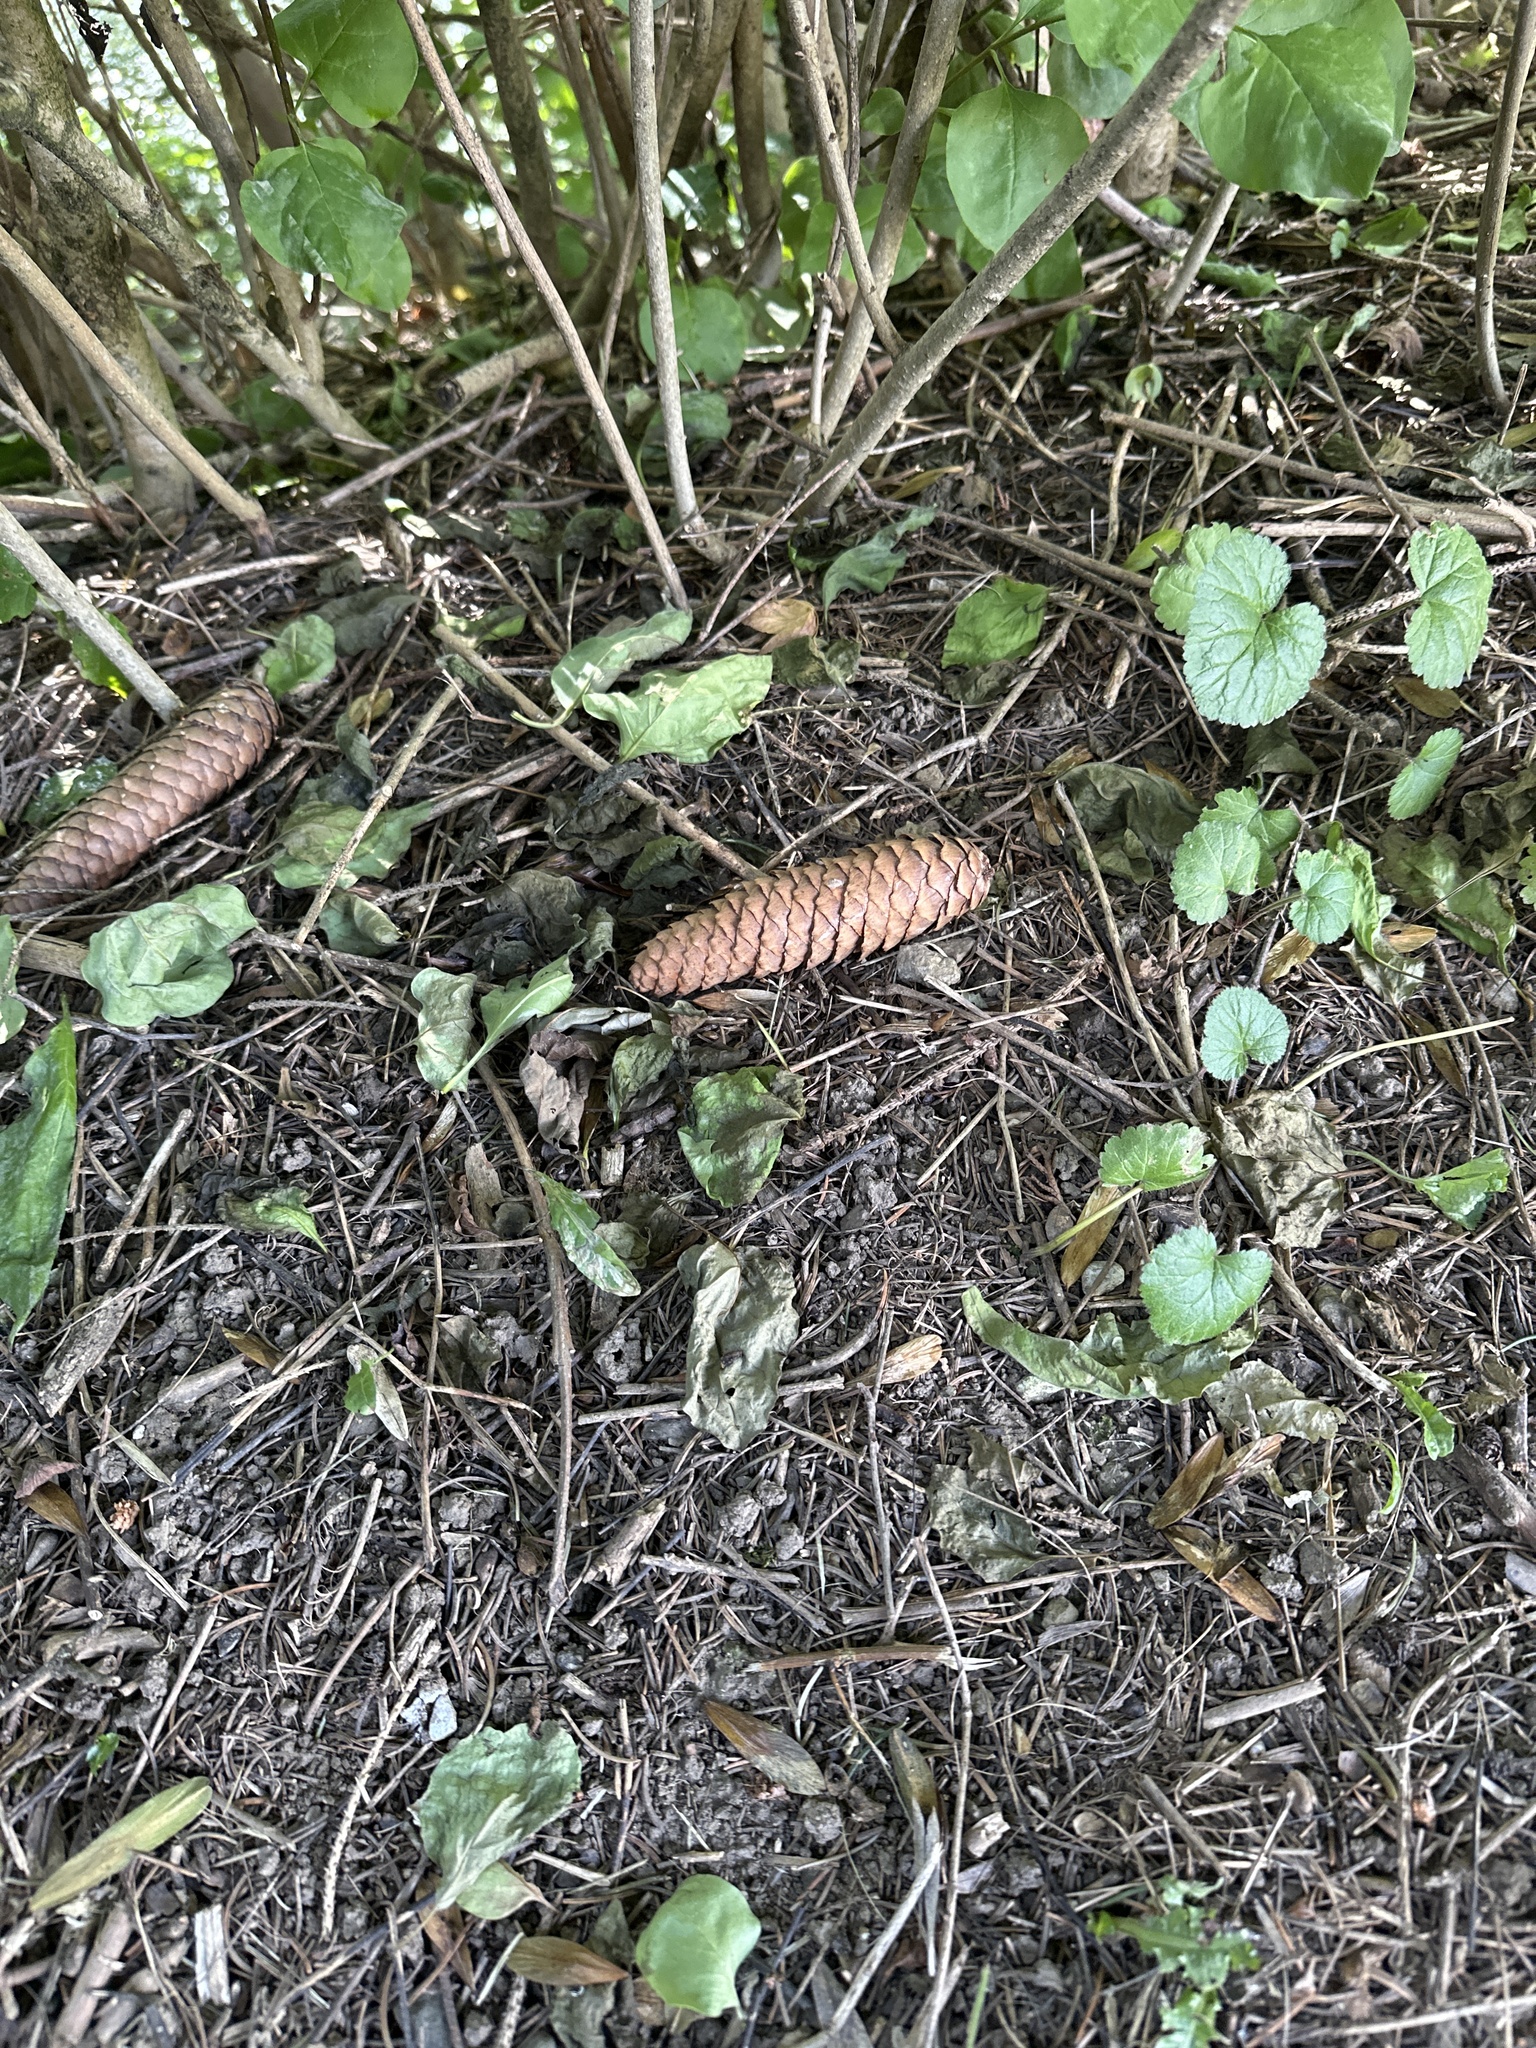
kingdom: Plantae
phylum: Tracheophyta
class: Pinopsida
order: Pinales
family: Pinaceae
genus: Picea
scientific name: Picea abies
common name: Norway spruce
